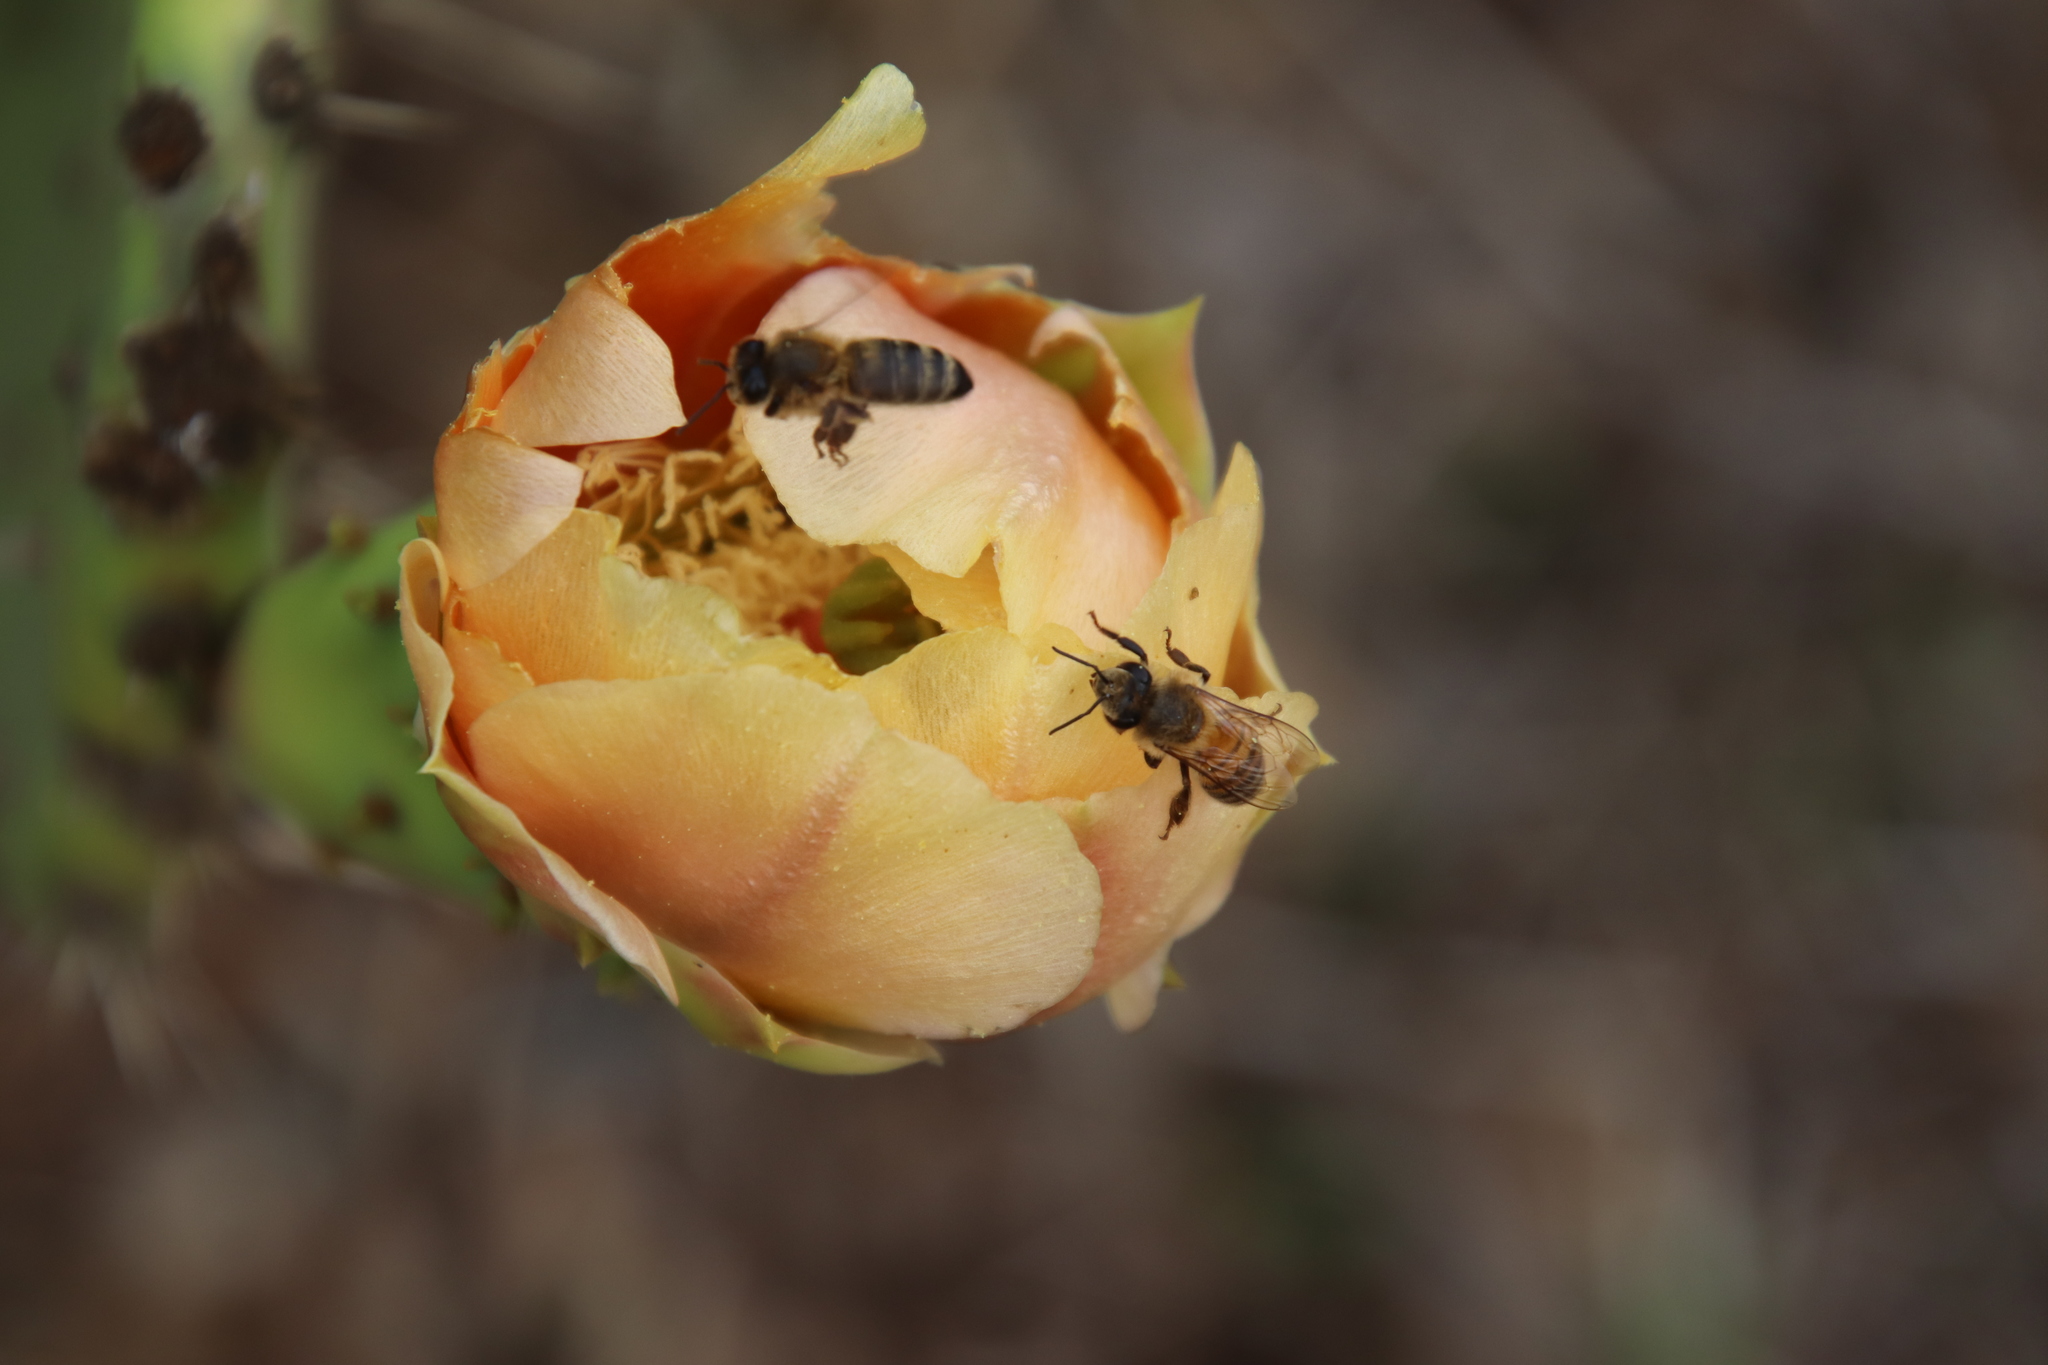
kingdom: Animalia
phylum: Arthropoda
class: Insecta
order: Hymenoptera
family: Apidae
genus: Apis
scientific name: Apis mellifera
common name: Honey bee
